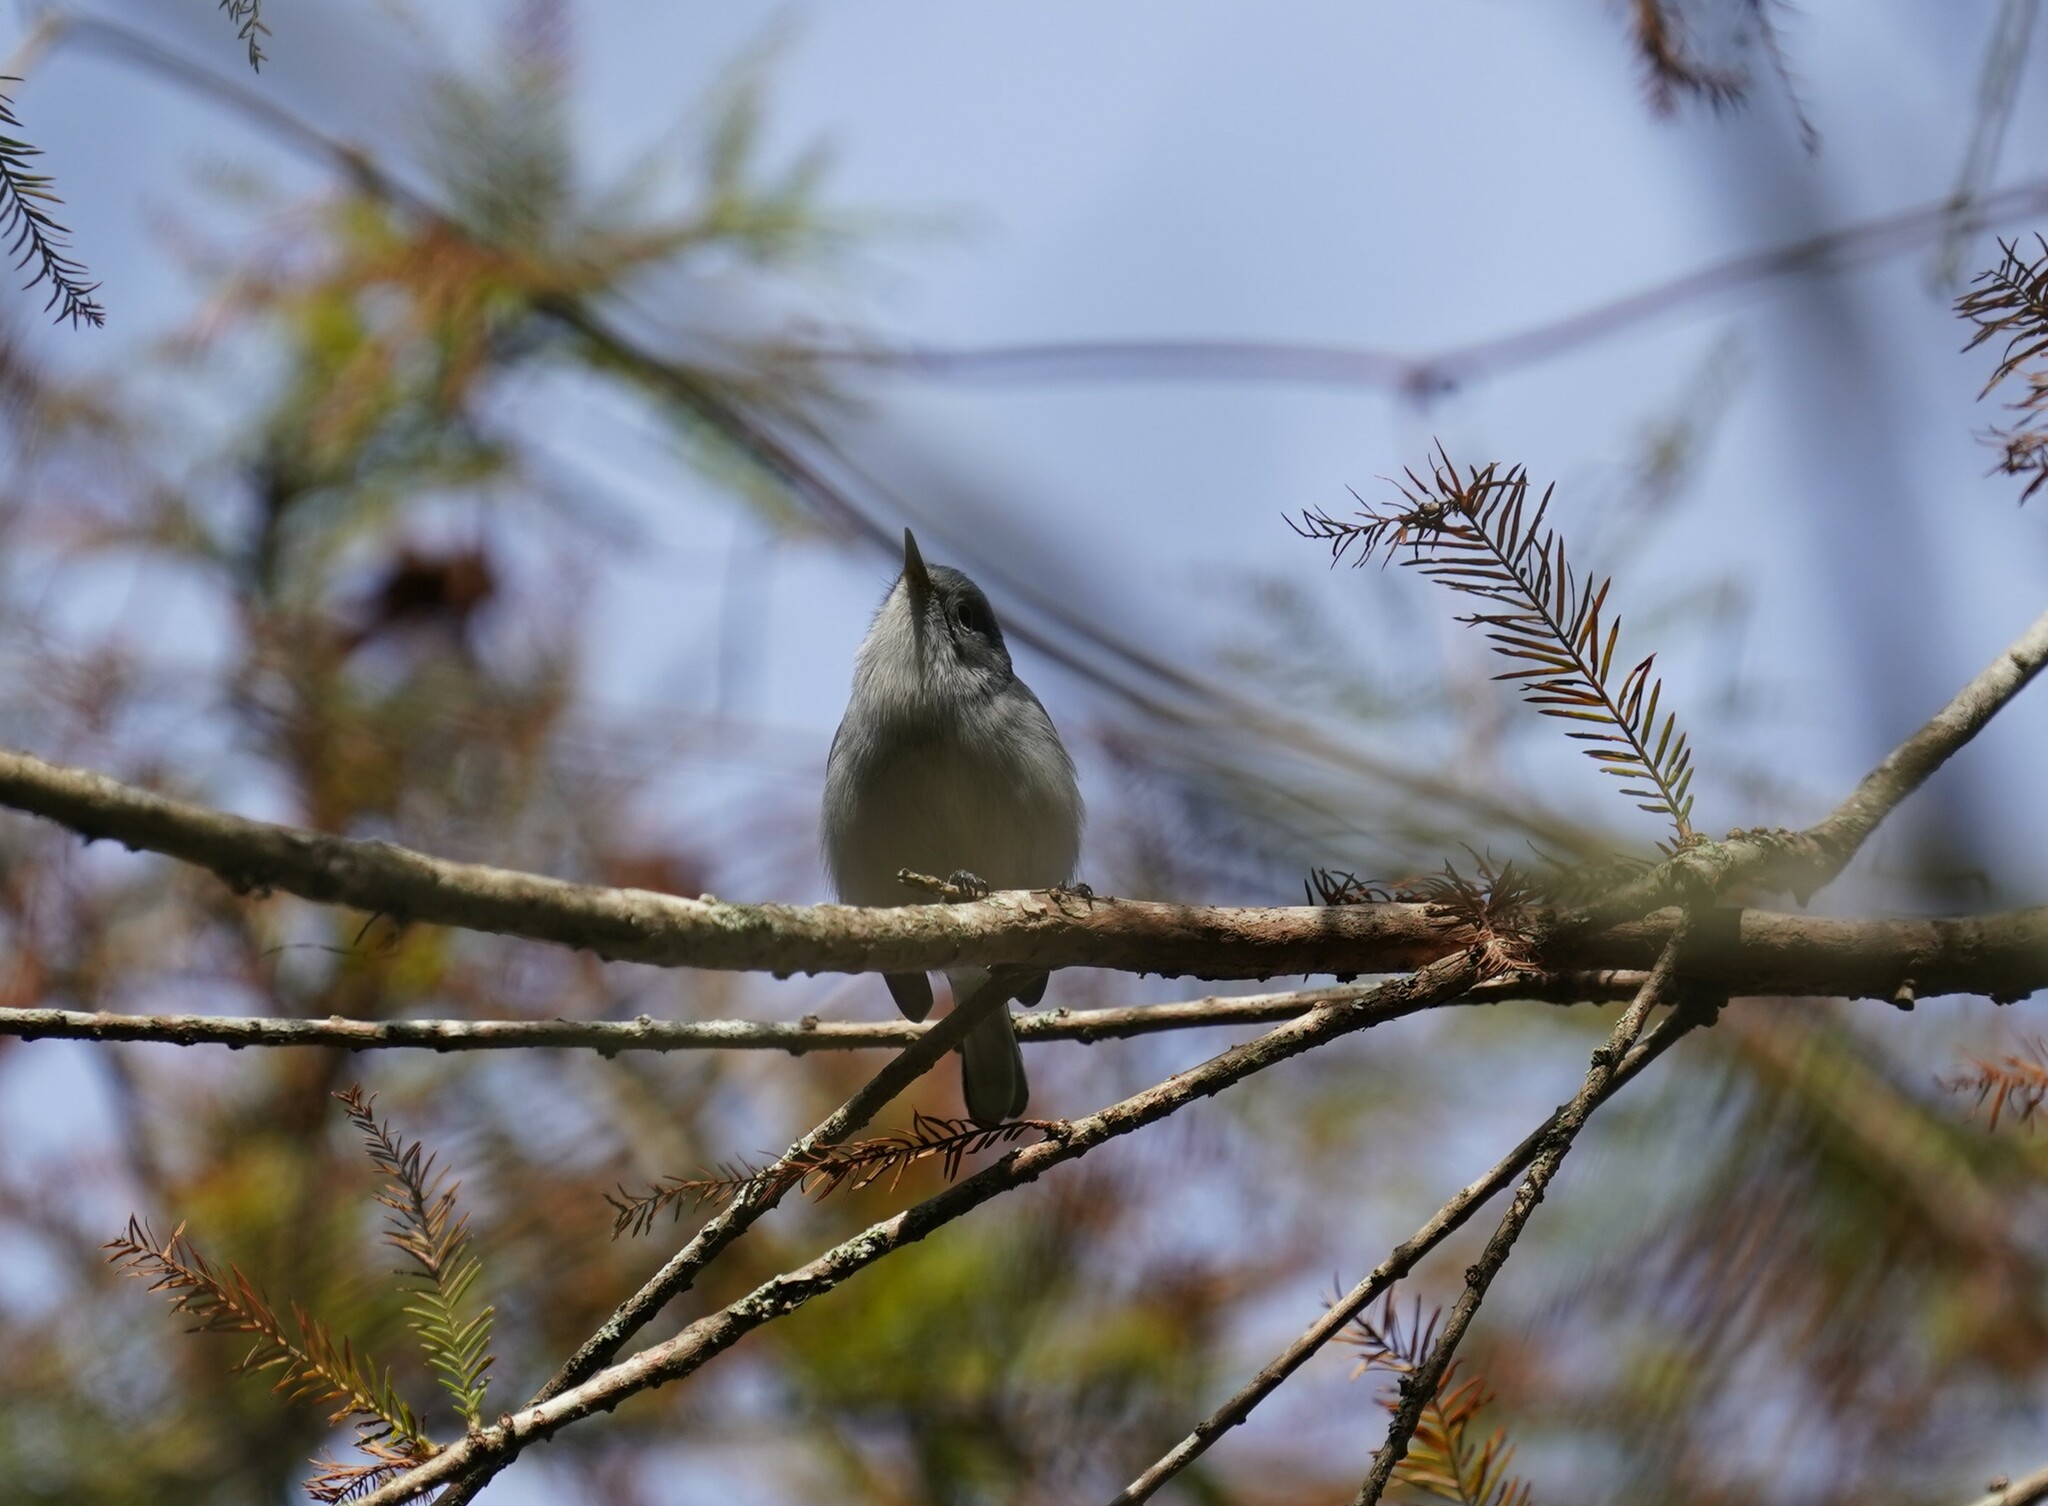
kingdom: Animalia
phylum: Chordata
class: Aves
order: Passeriformes
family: Polioptilidae
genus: Polioptila
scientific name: Polioptila caerulea
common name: Blue-gray gnatcatcher
